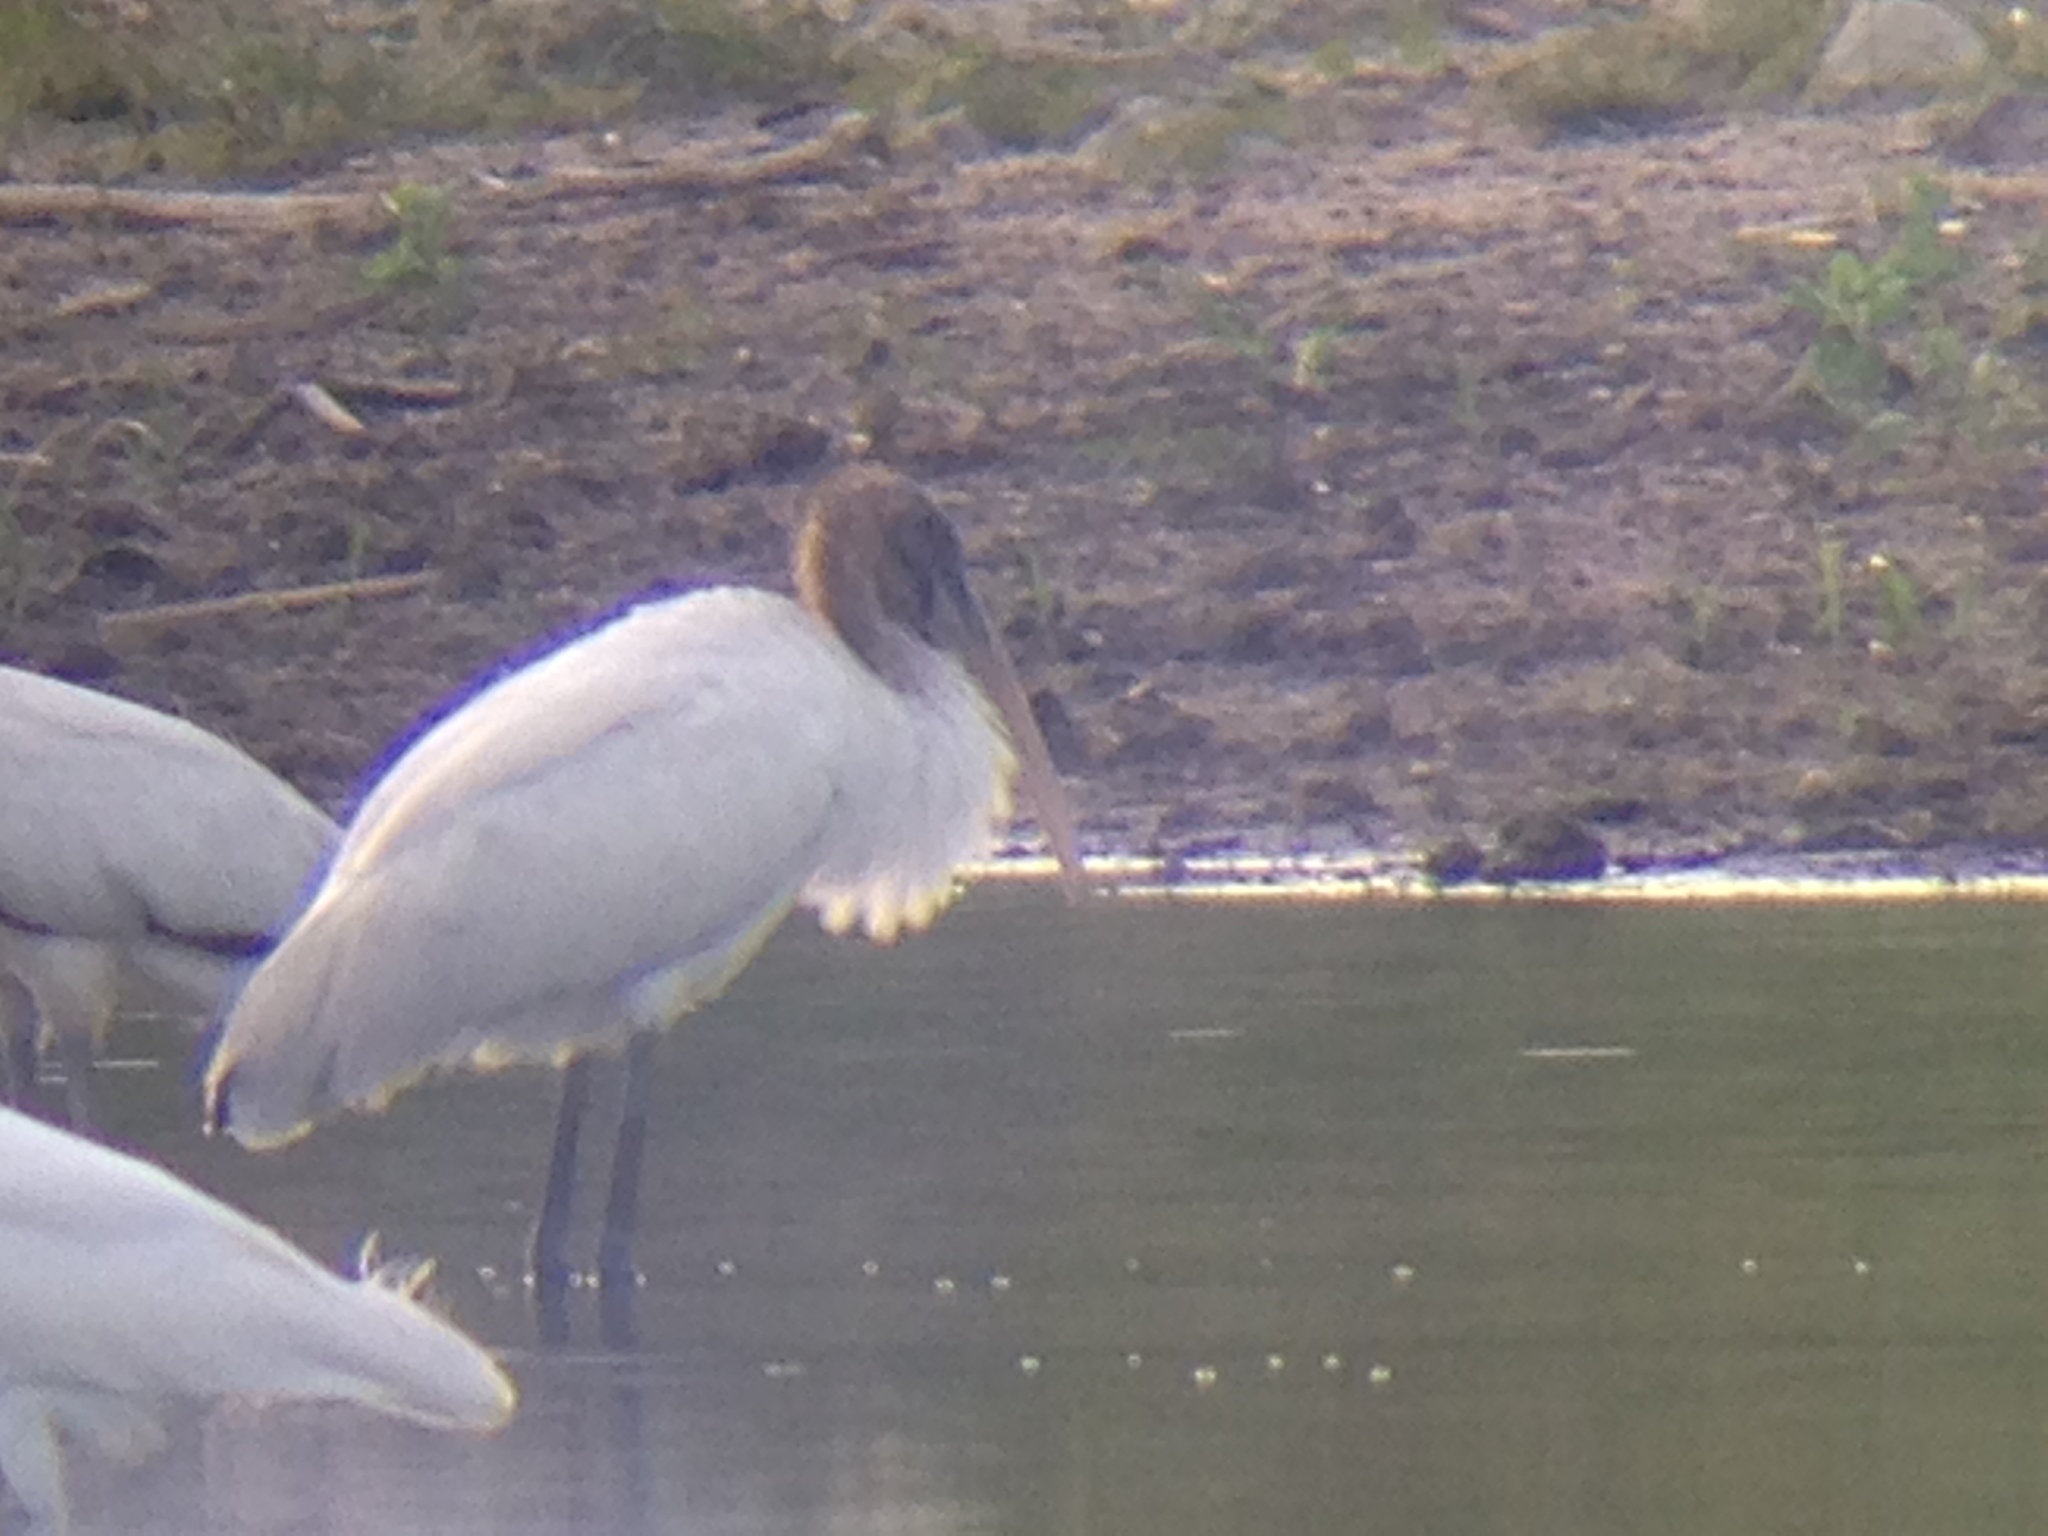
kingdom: Animalia
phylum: Chordata
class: Aves
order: Ciconiiformes
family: Ciconiidae
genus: Mycteria
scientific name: Mycteria americana
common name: Wood stork
